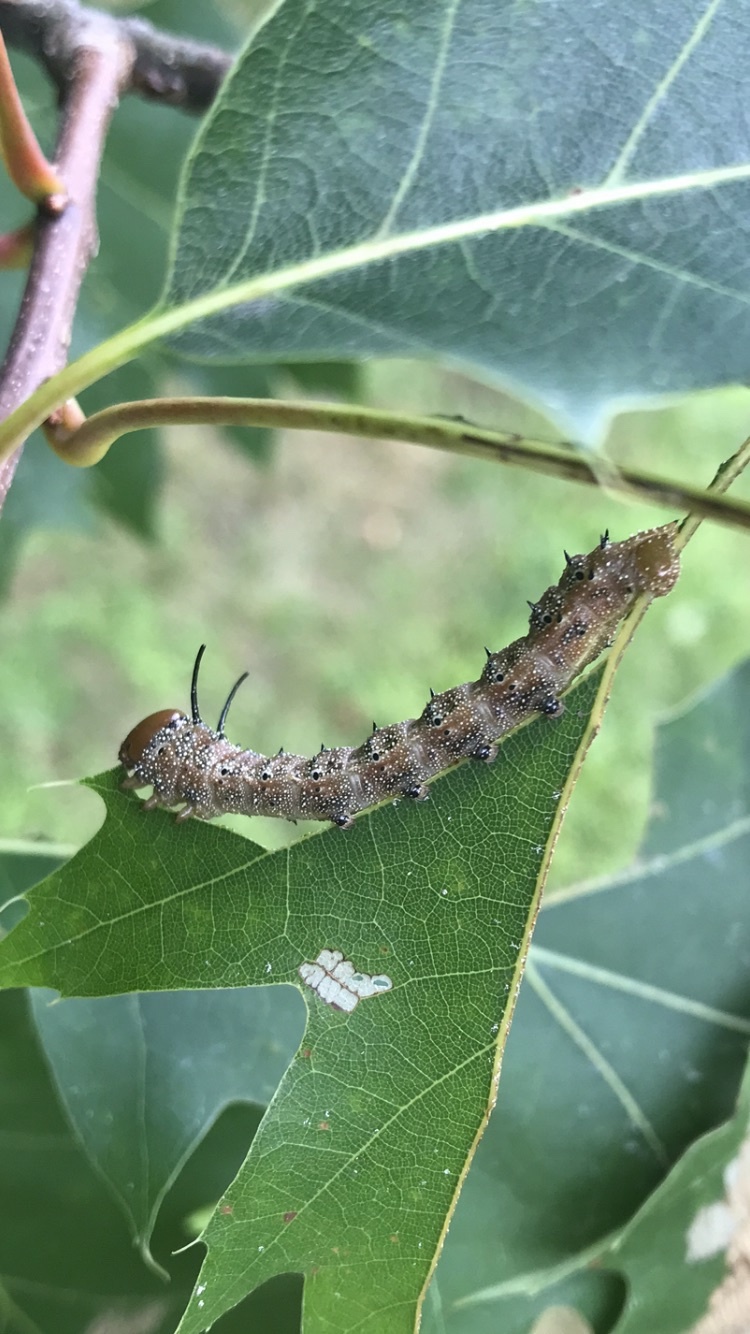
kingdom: Animalia
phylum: Arthropoda
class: Insecta
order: Lepidoptera
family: Saturniidae
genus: Anisota
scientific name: Anisota virginiensis
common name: Pink striped oakworm moth
